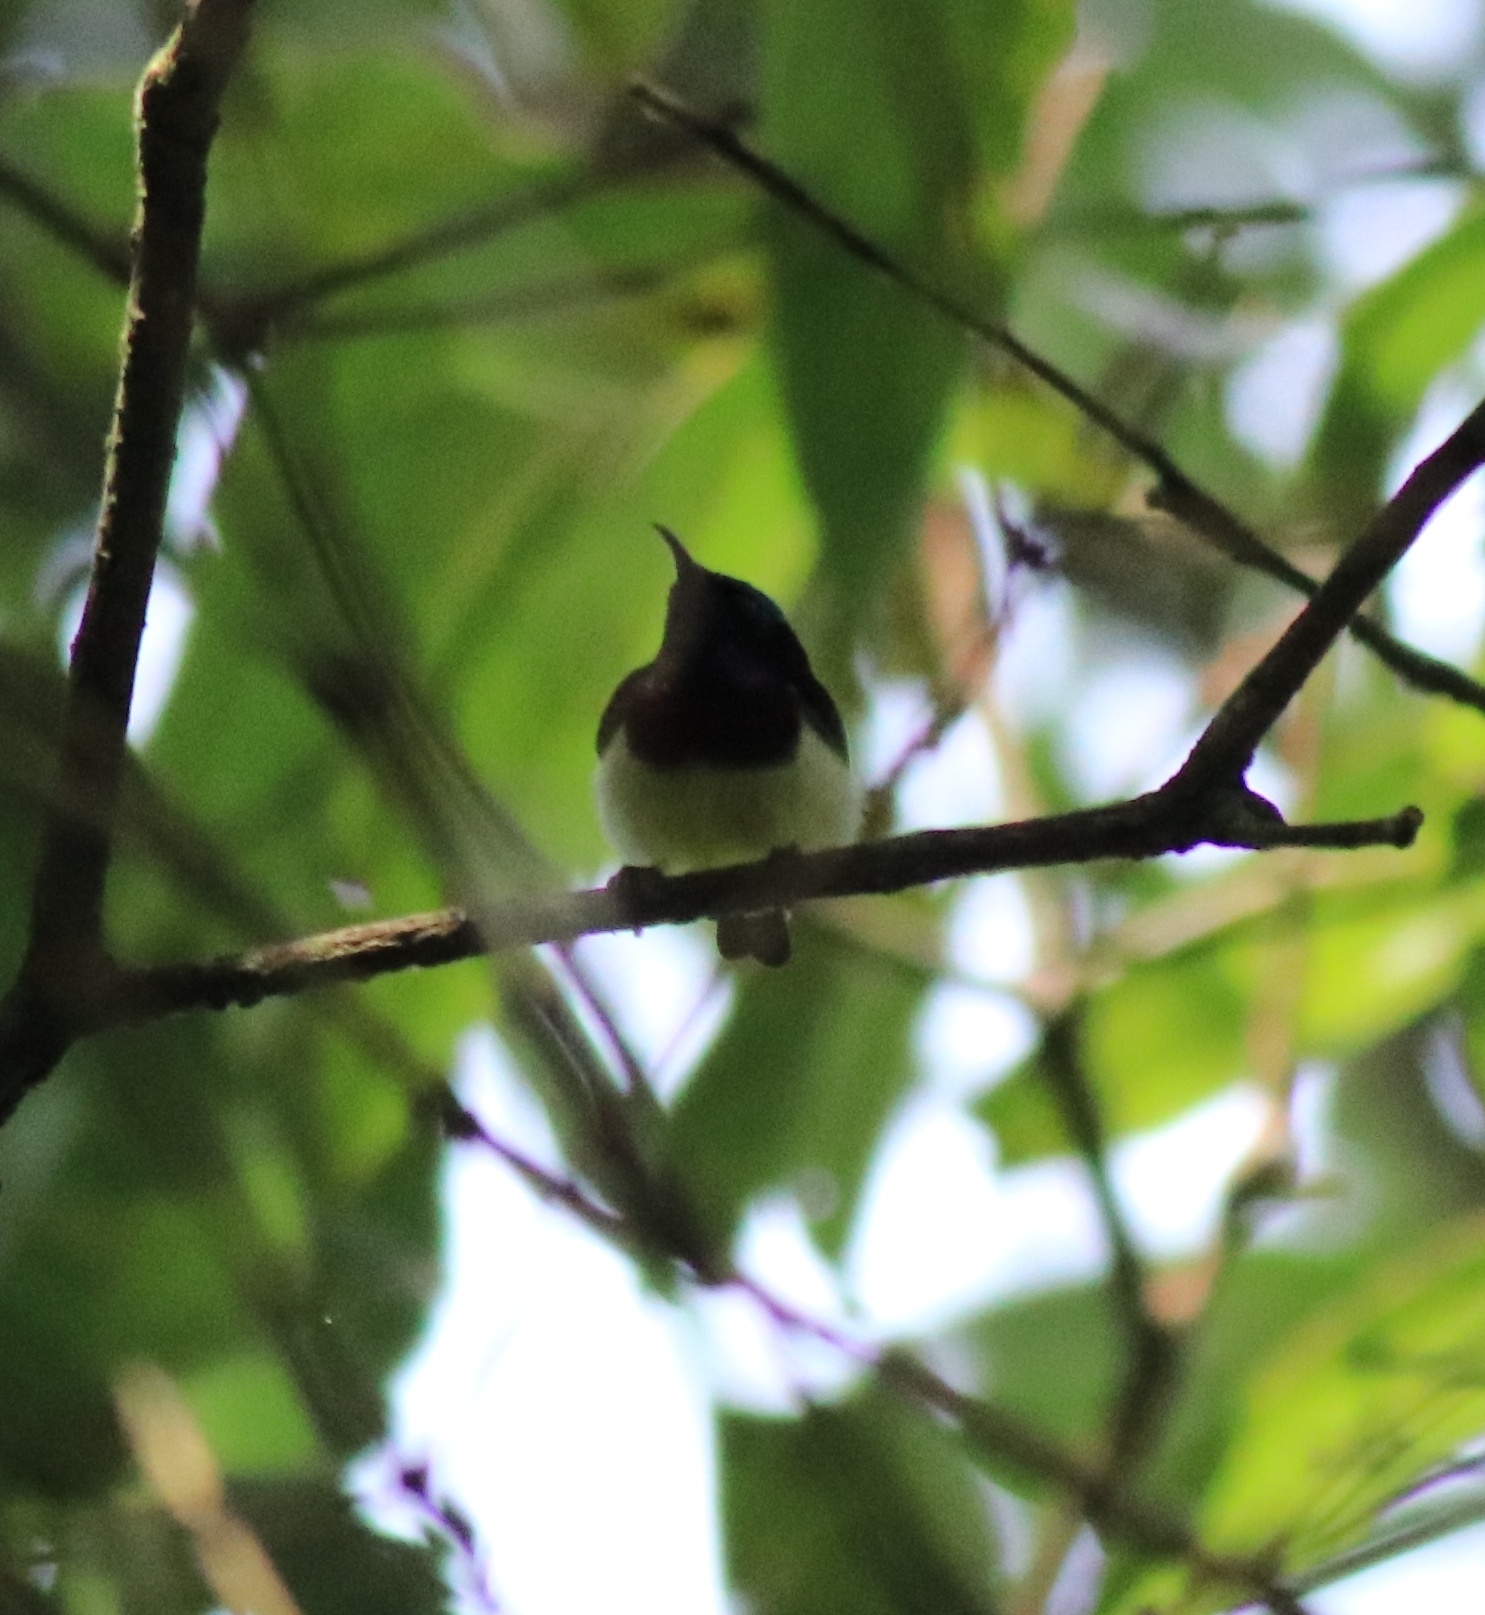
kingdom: Animalia
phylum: Chordata
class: Aves
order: Passeriformes
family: Nectariniidae
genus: Leptocoma
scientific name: Leptocoma minima
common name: Crimson-backed sunbird
